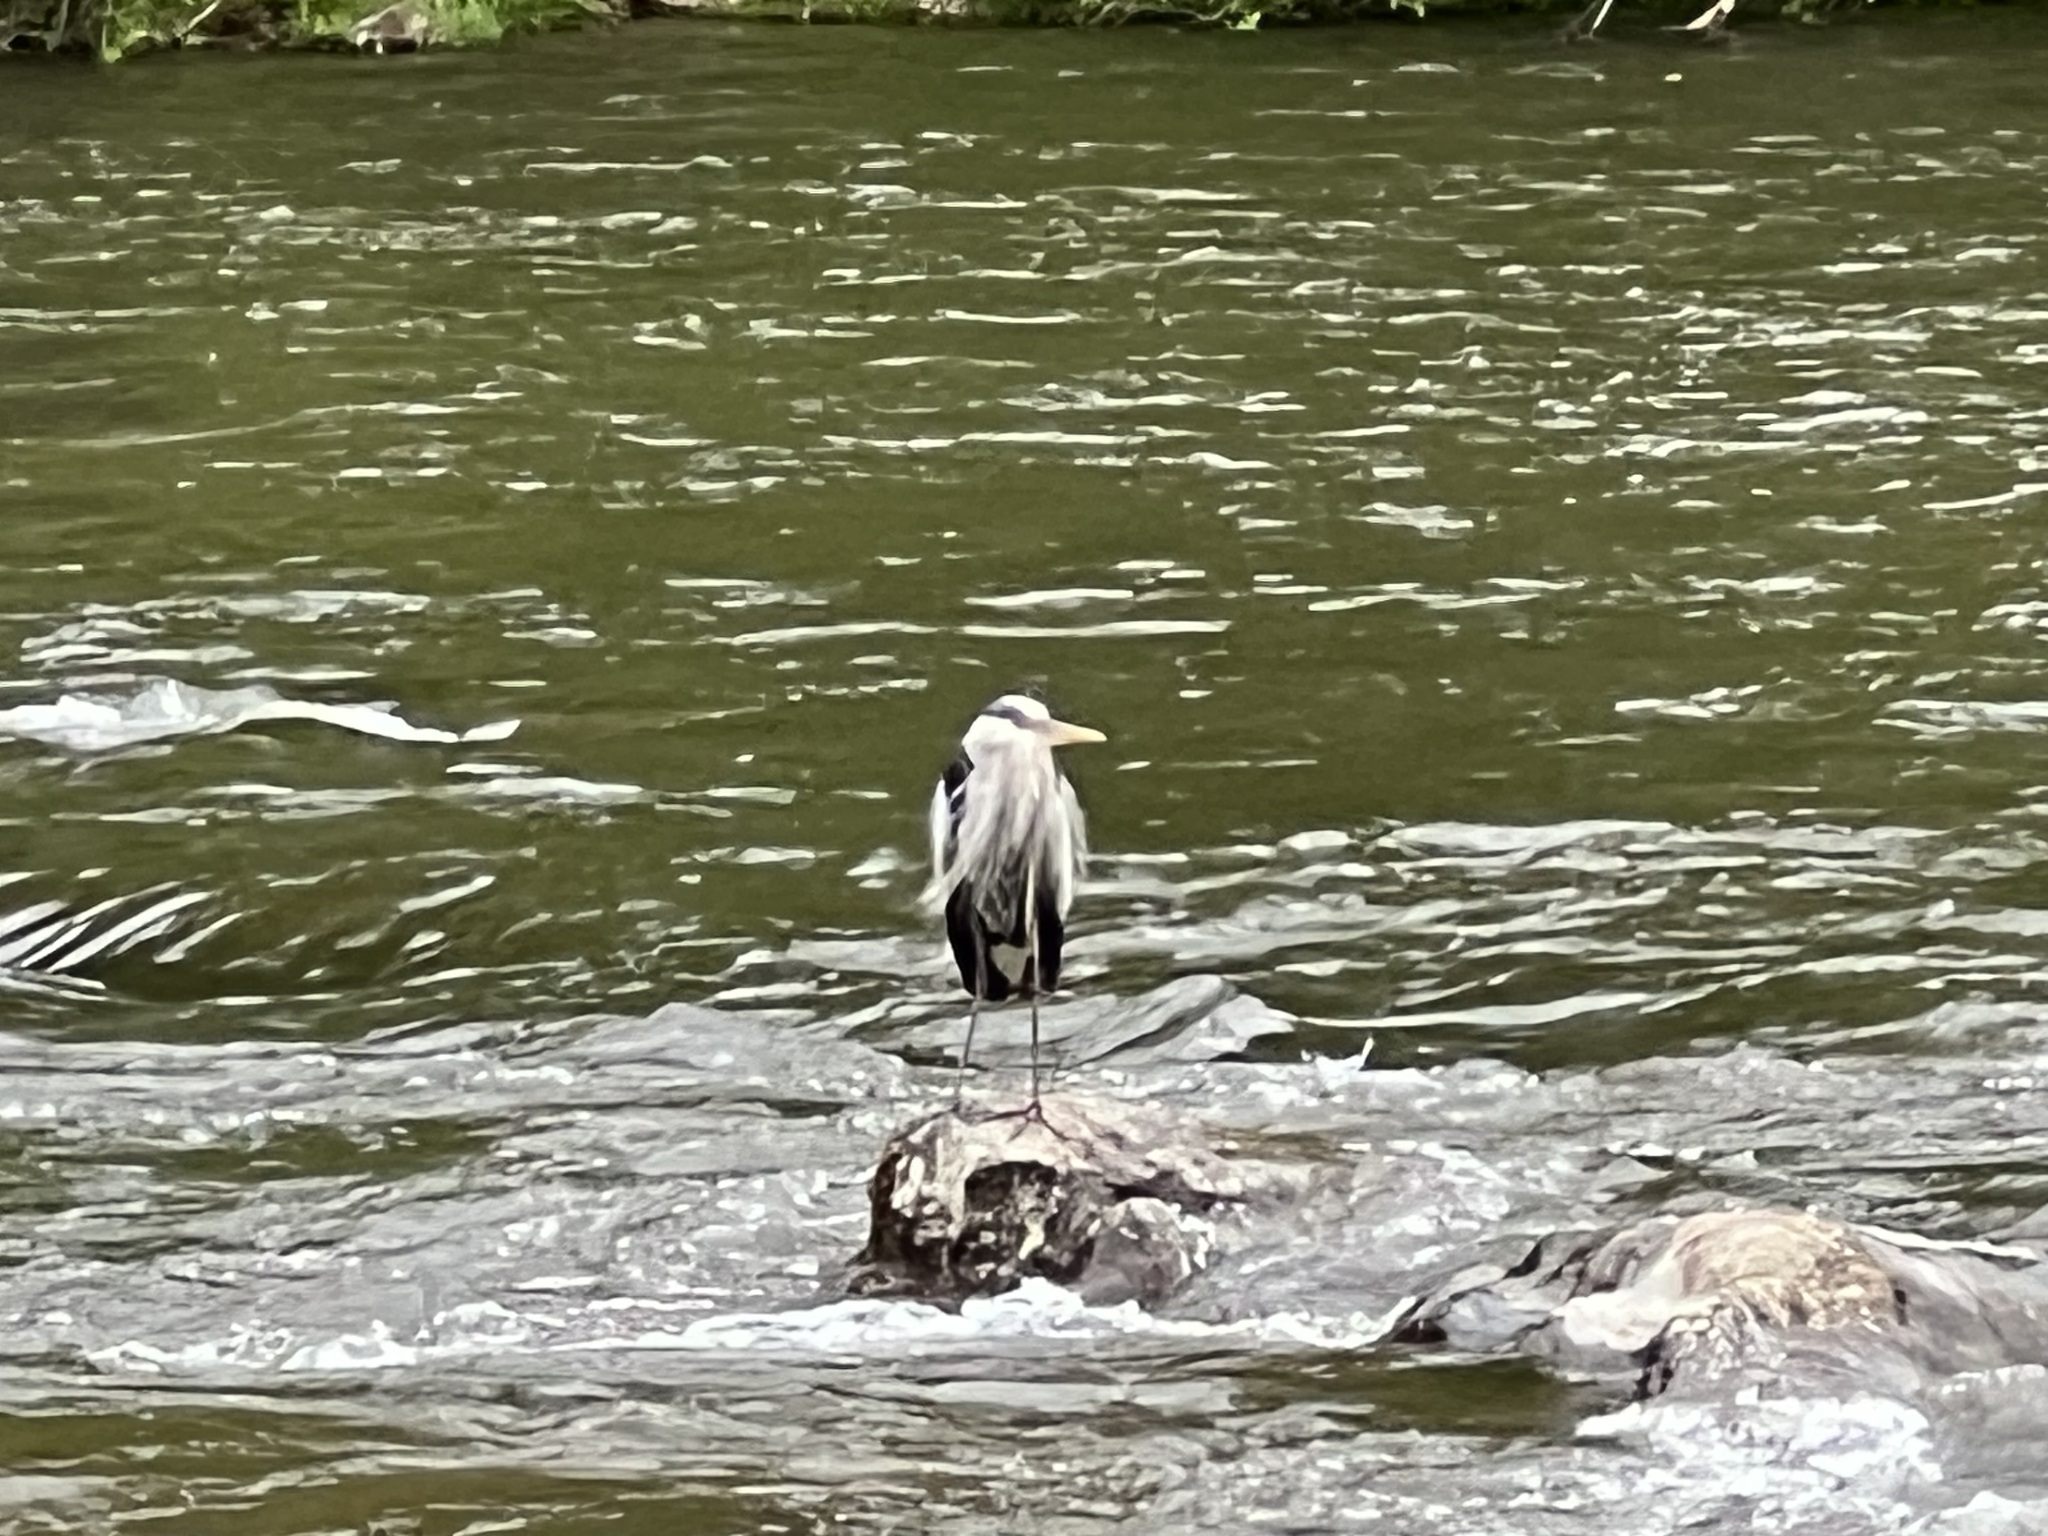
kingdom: Animalia
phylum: Chordata
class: Aves
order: Pelecaniformes
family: Ardeidae
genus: Ardea
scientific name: Ardea herodias
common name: Great blue heron
